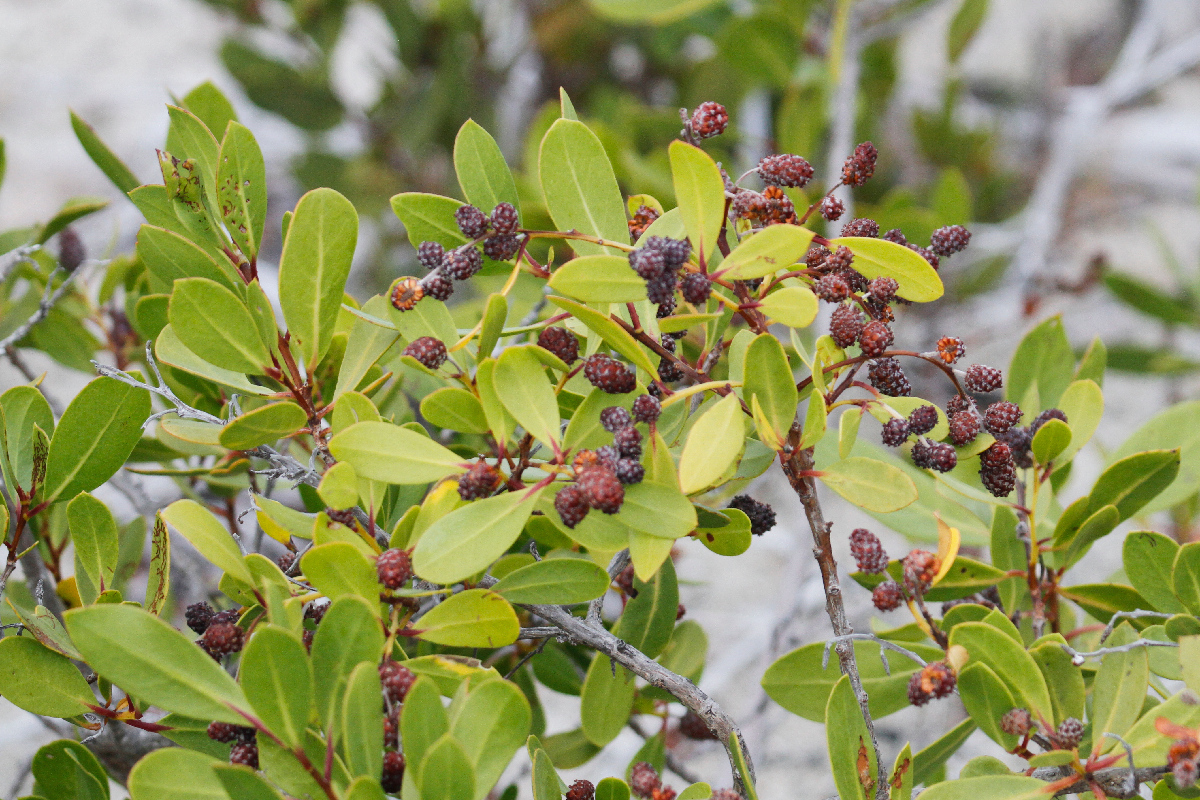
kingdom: Plantae
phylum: Tracheophyta
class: Magnoliopsida
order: Myrtales
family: Combretaceae
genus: Conocarpus
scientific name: Conocarpus erectus
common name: Button mangrove
